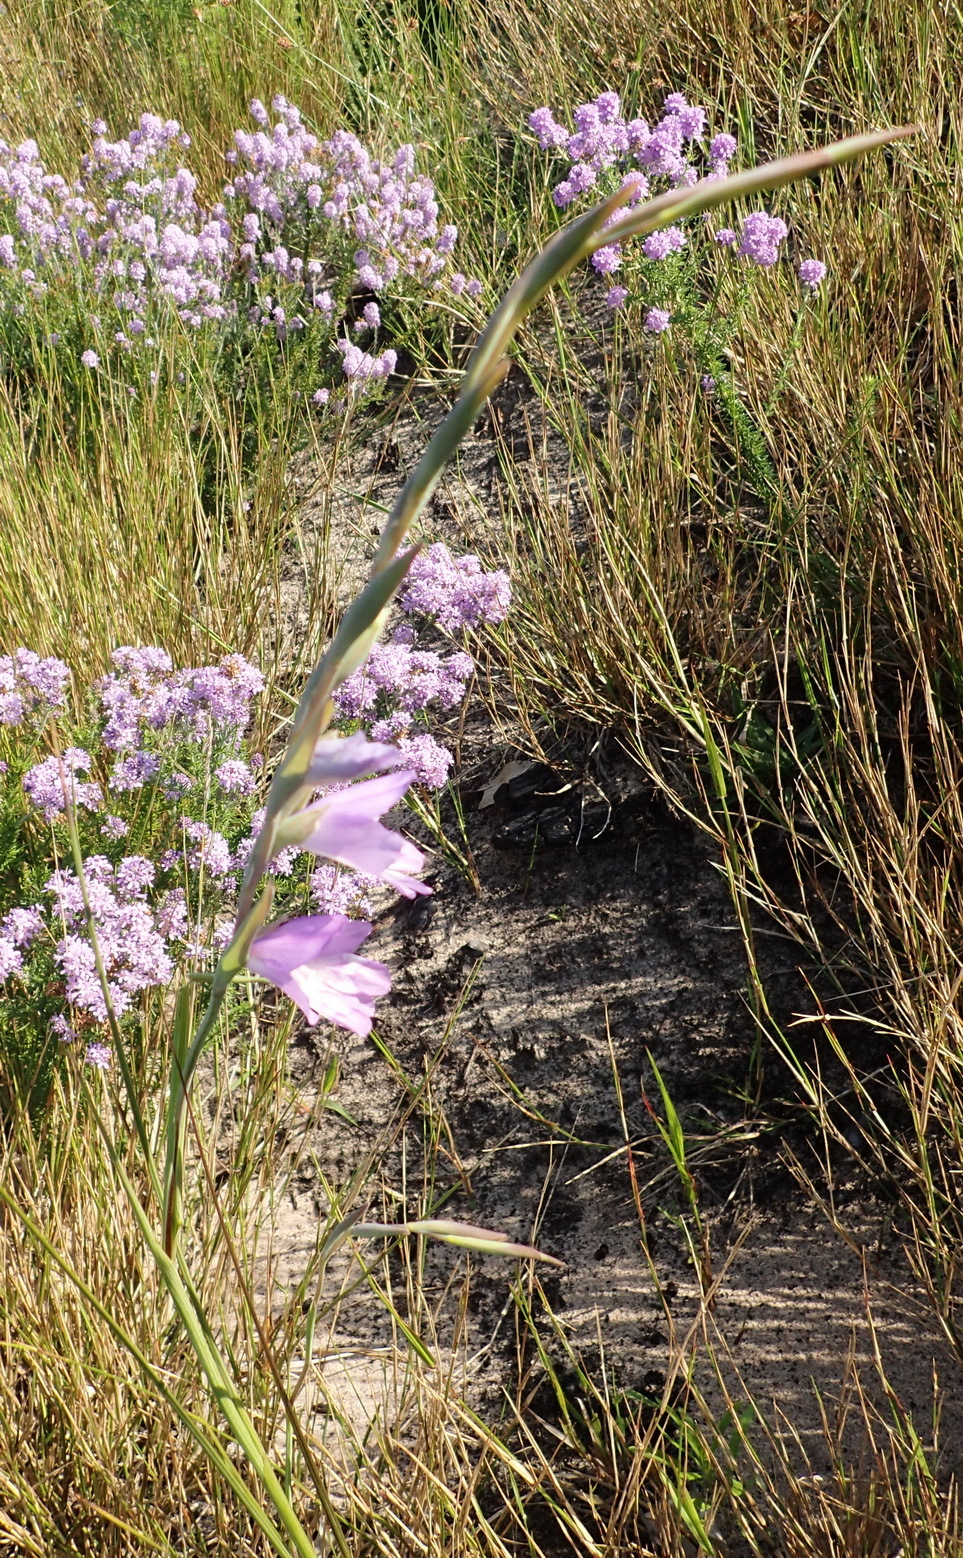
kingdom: Plantae
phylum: Tracheophyta
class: Liliopsida
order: Asparagales
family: Iridaceae
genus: Gladiolus
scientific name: Gladiolus rogersii
